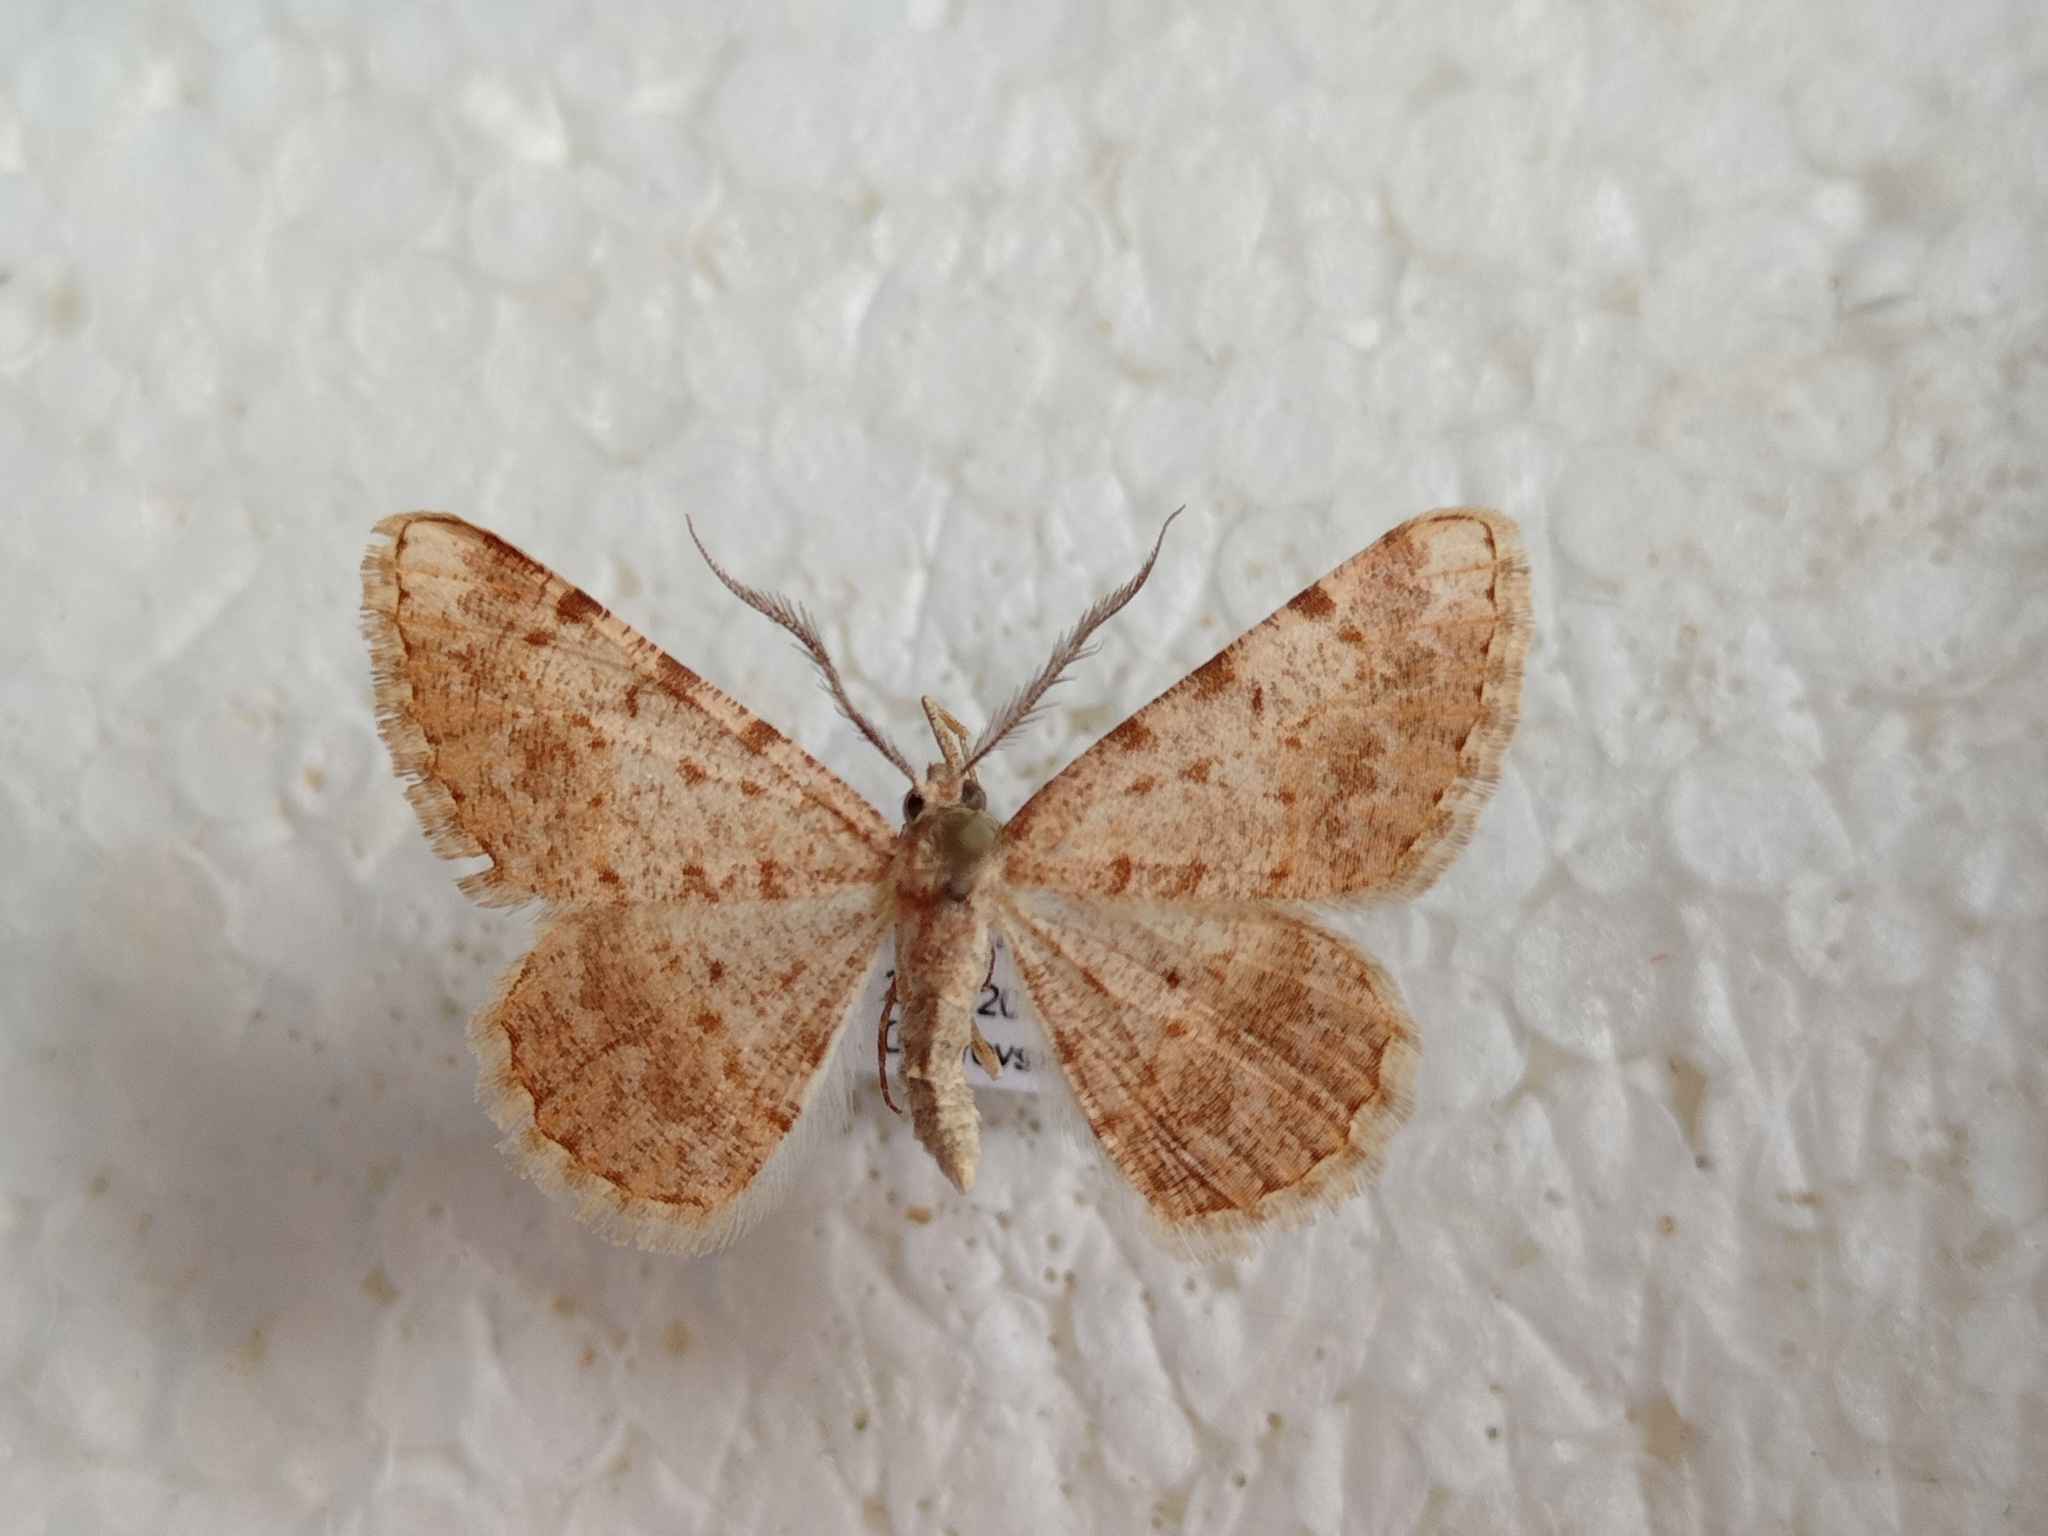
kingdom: Animalia
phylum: Arthropoda
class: Insecta
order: Lepidoptera
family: Geometridae
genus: Gnopharmia
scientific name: Gnopharmia colchidaria
